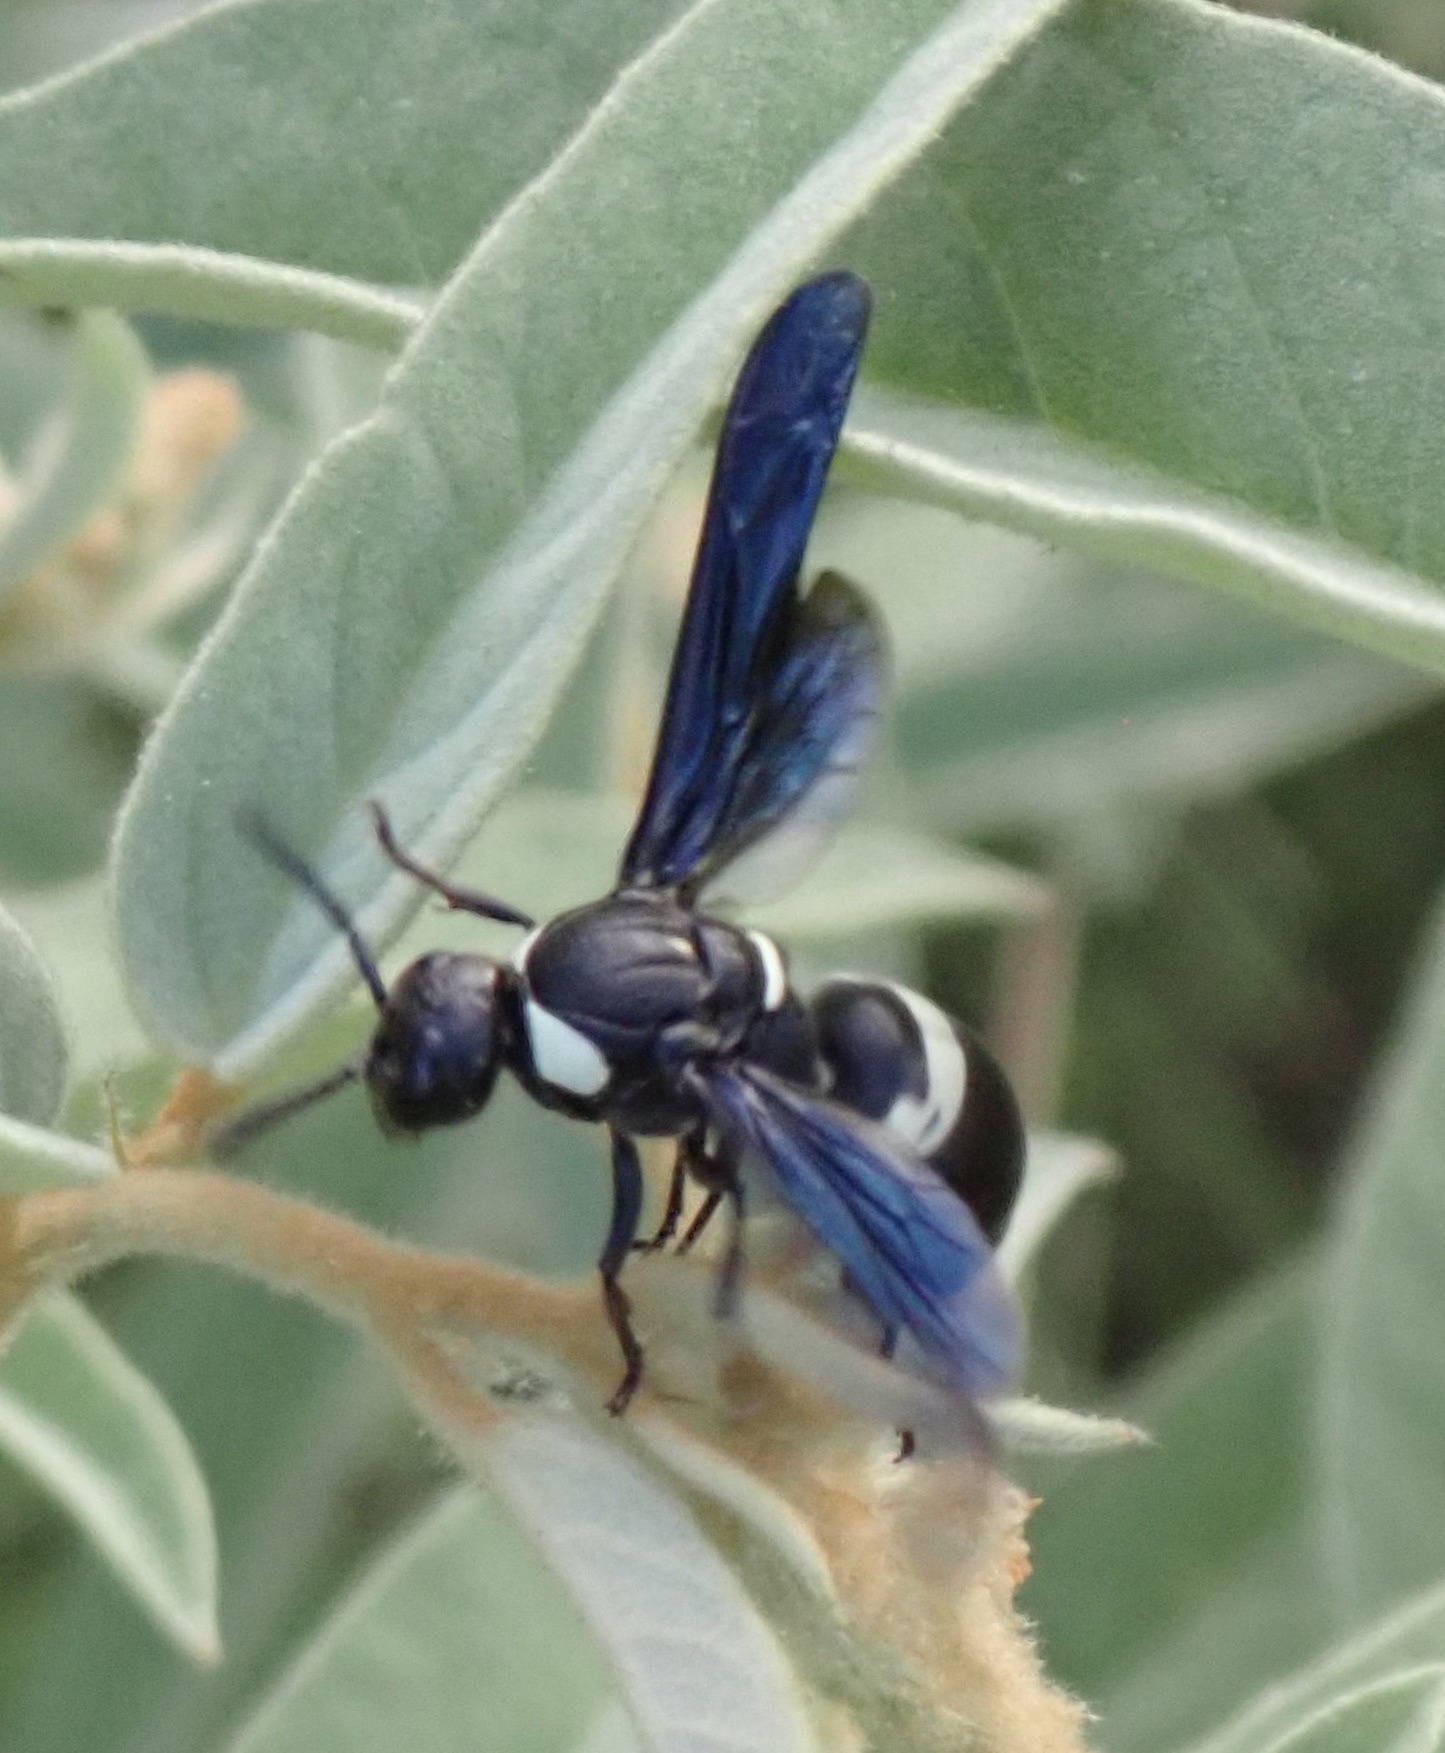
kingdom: Animalia
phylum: Arthropoda
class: Insecta
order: Hymenoptera
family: Eumenidae
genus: Monobia
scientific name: Monobia quadridens
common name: Four-toothed mason wasp
